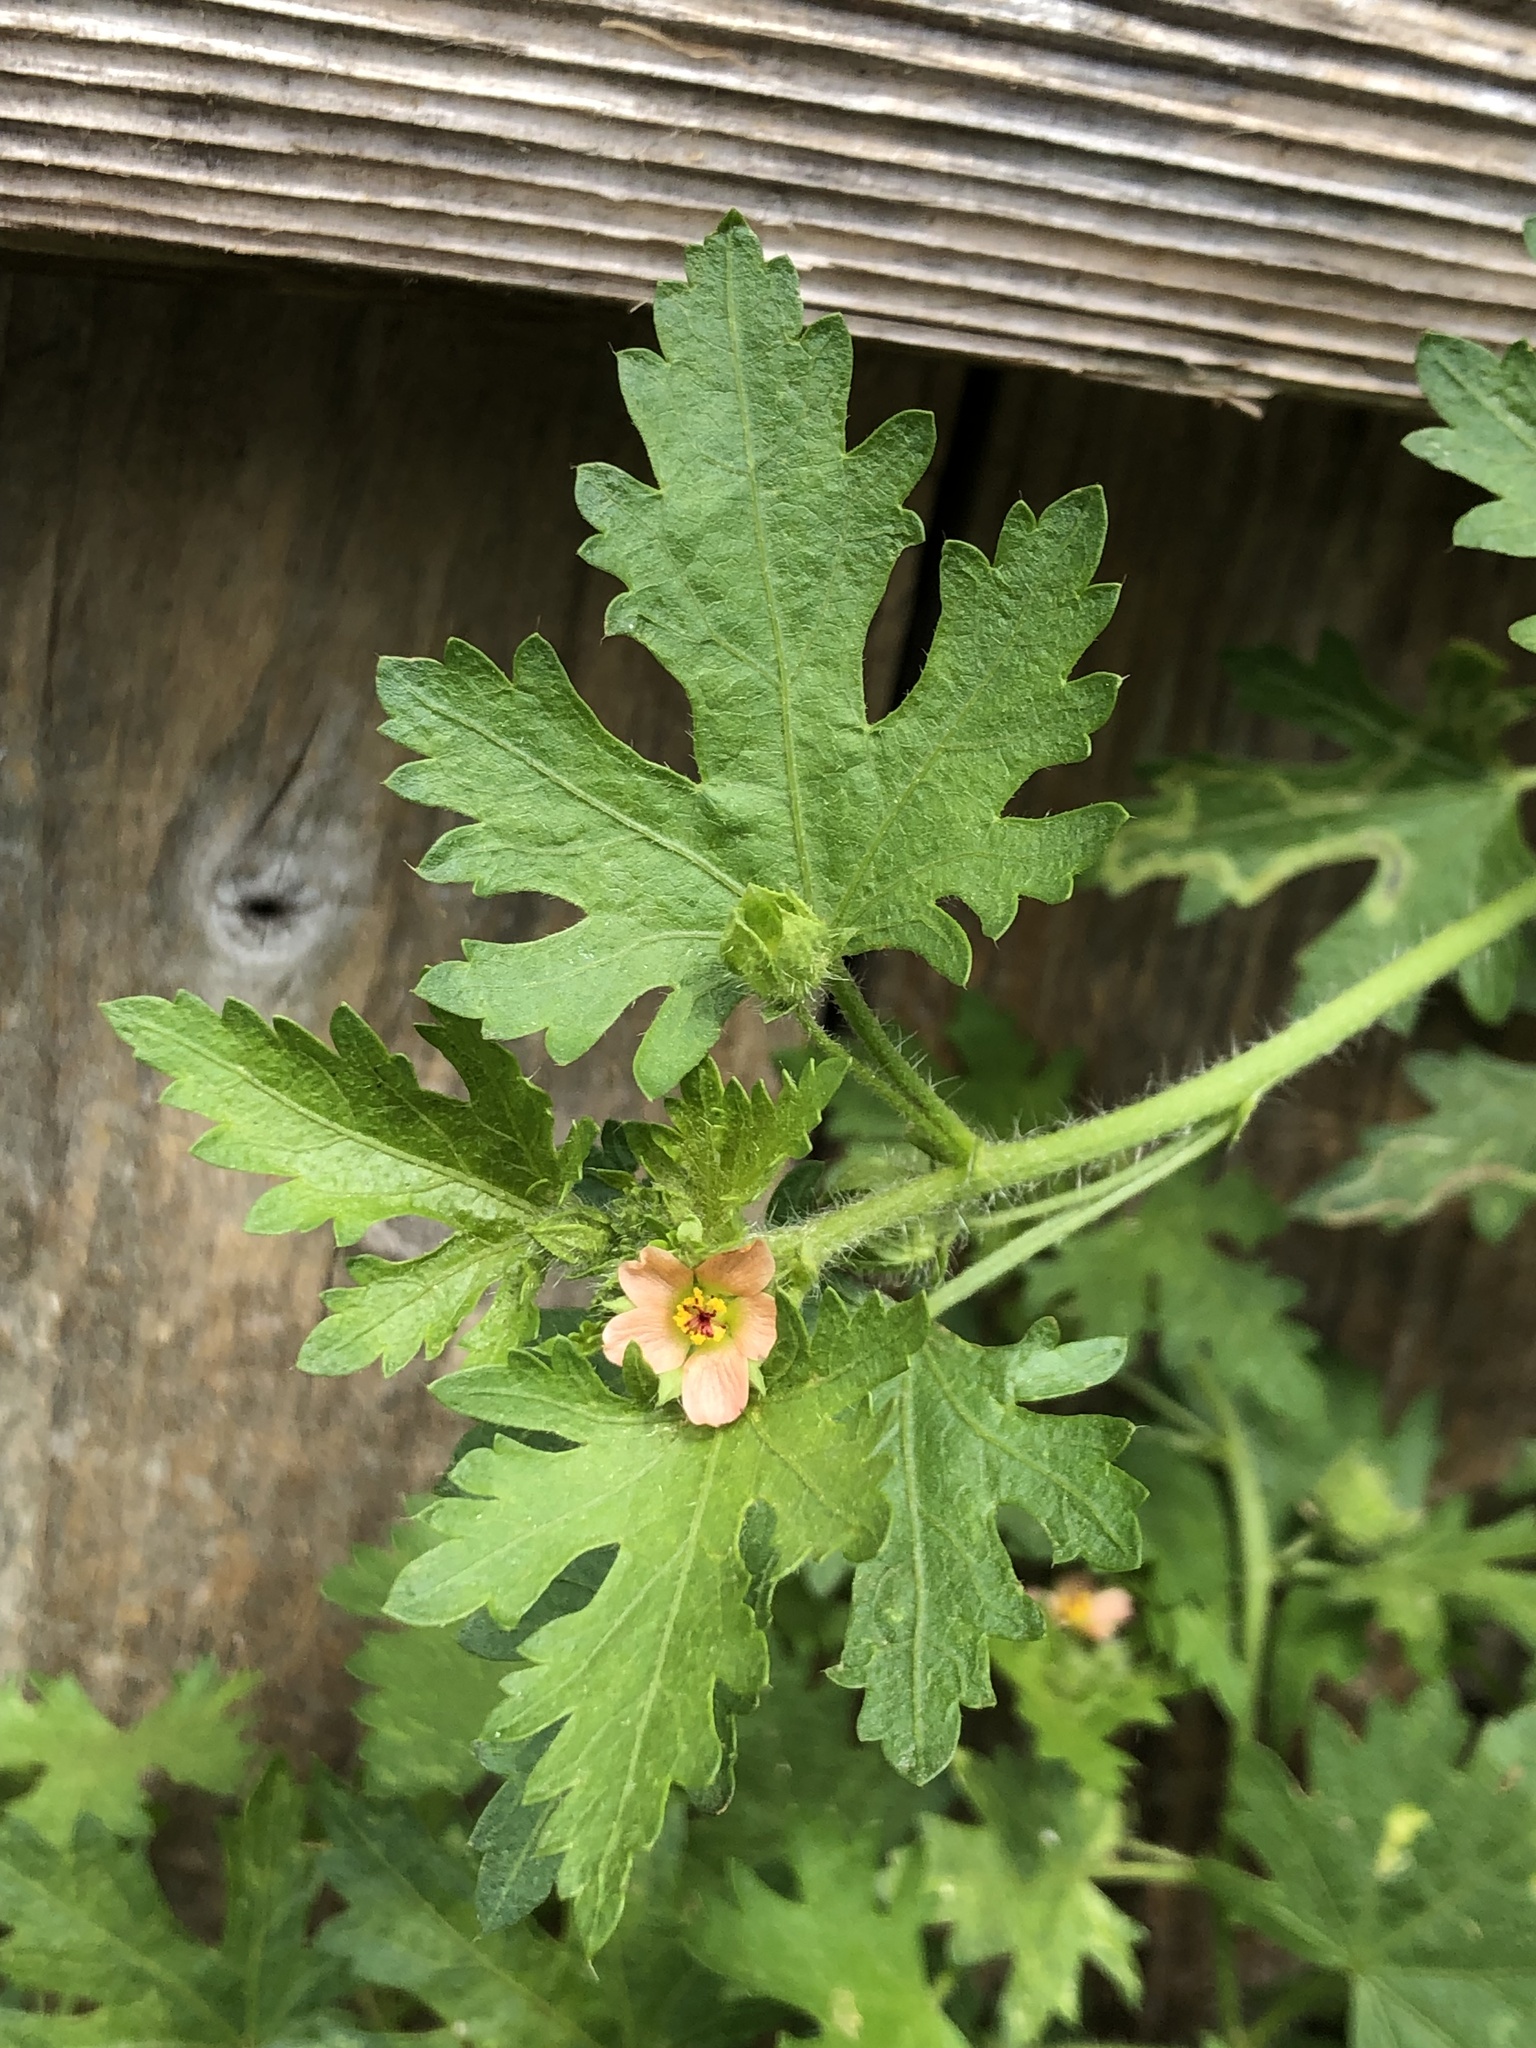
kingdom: Plantae
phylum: Tracheophyta
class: Magnoliopsida
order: Malvales
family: Malvaceae
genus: Modiola
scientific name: Modiola caroliniana
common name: Carolina bristlemallow
